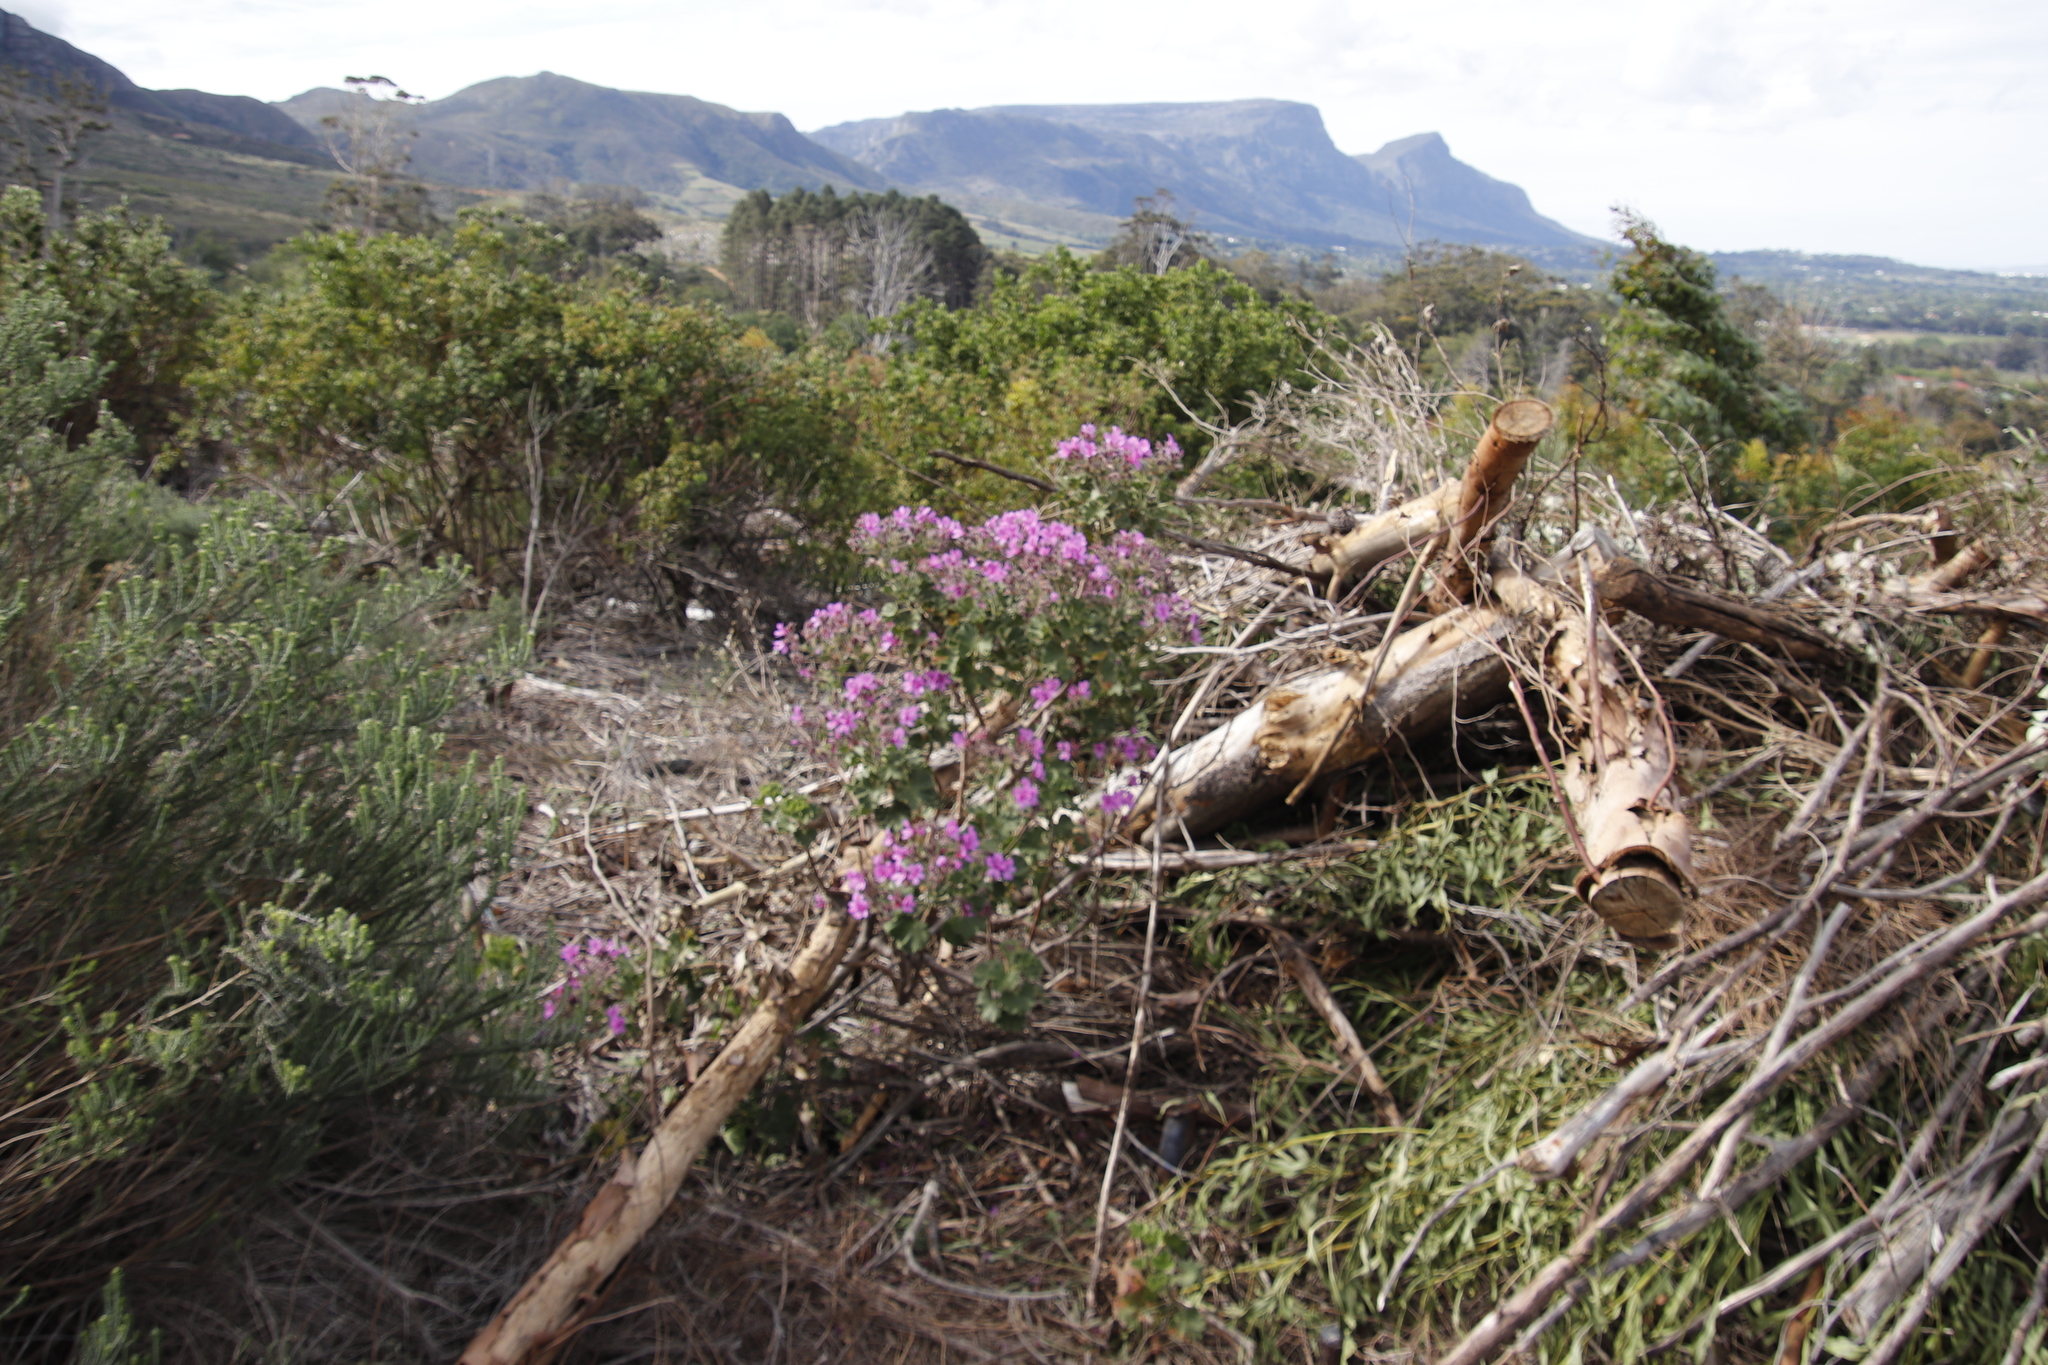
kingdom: Plantae
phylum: Tracheophyta
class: Magnoliopsida
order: Geraniales
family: Geraniaceae
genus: Pelargonium
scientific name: Pelargonium cucullatum
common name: Tree pelargonium
